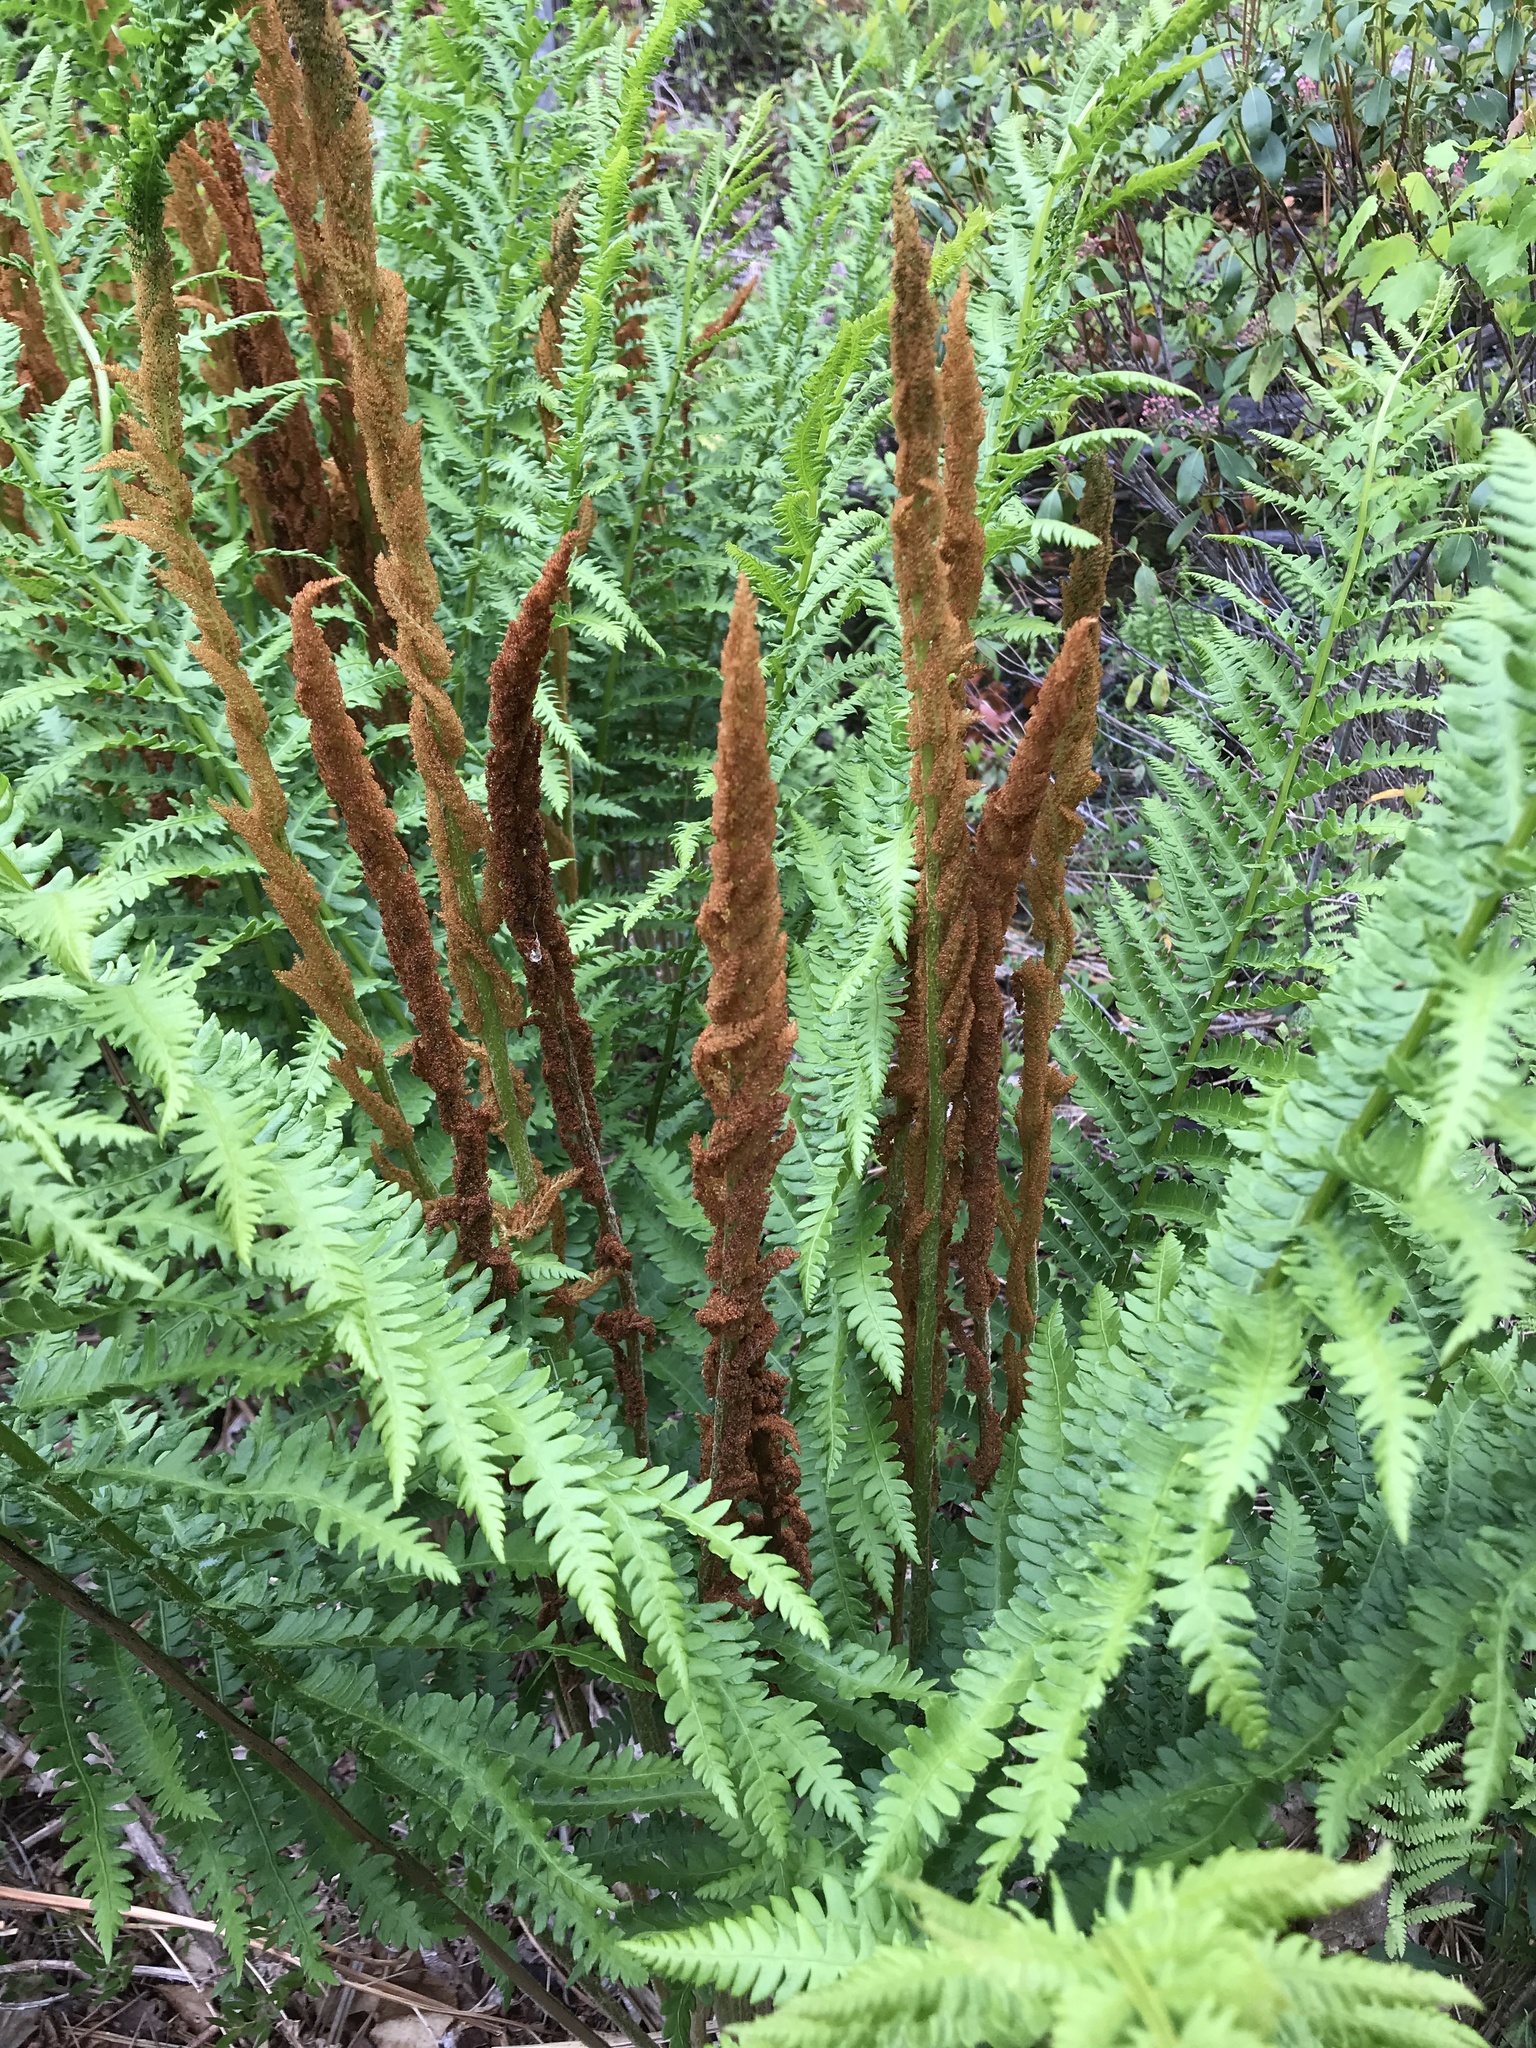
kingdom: Plantae
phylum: Tracheophyta
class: Polypodiopsida
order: Osmundales
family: Osmundaceae
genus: Osmundastrum
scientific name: Osmundastrum cinnamomeum
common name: Cinnamon fern
